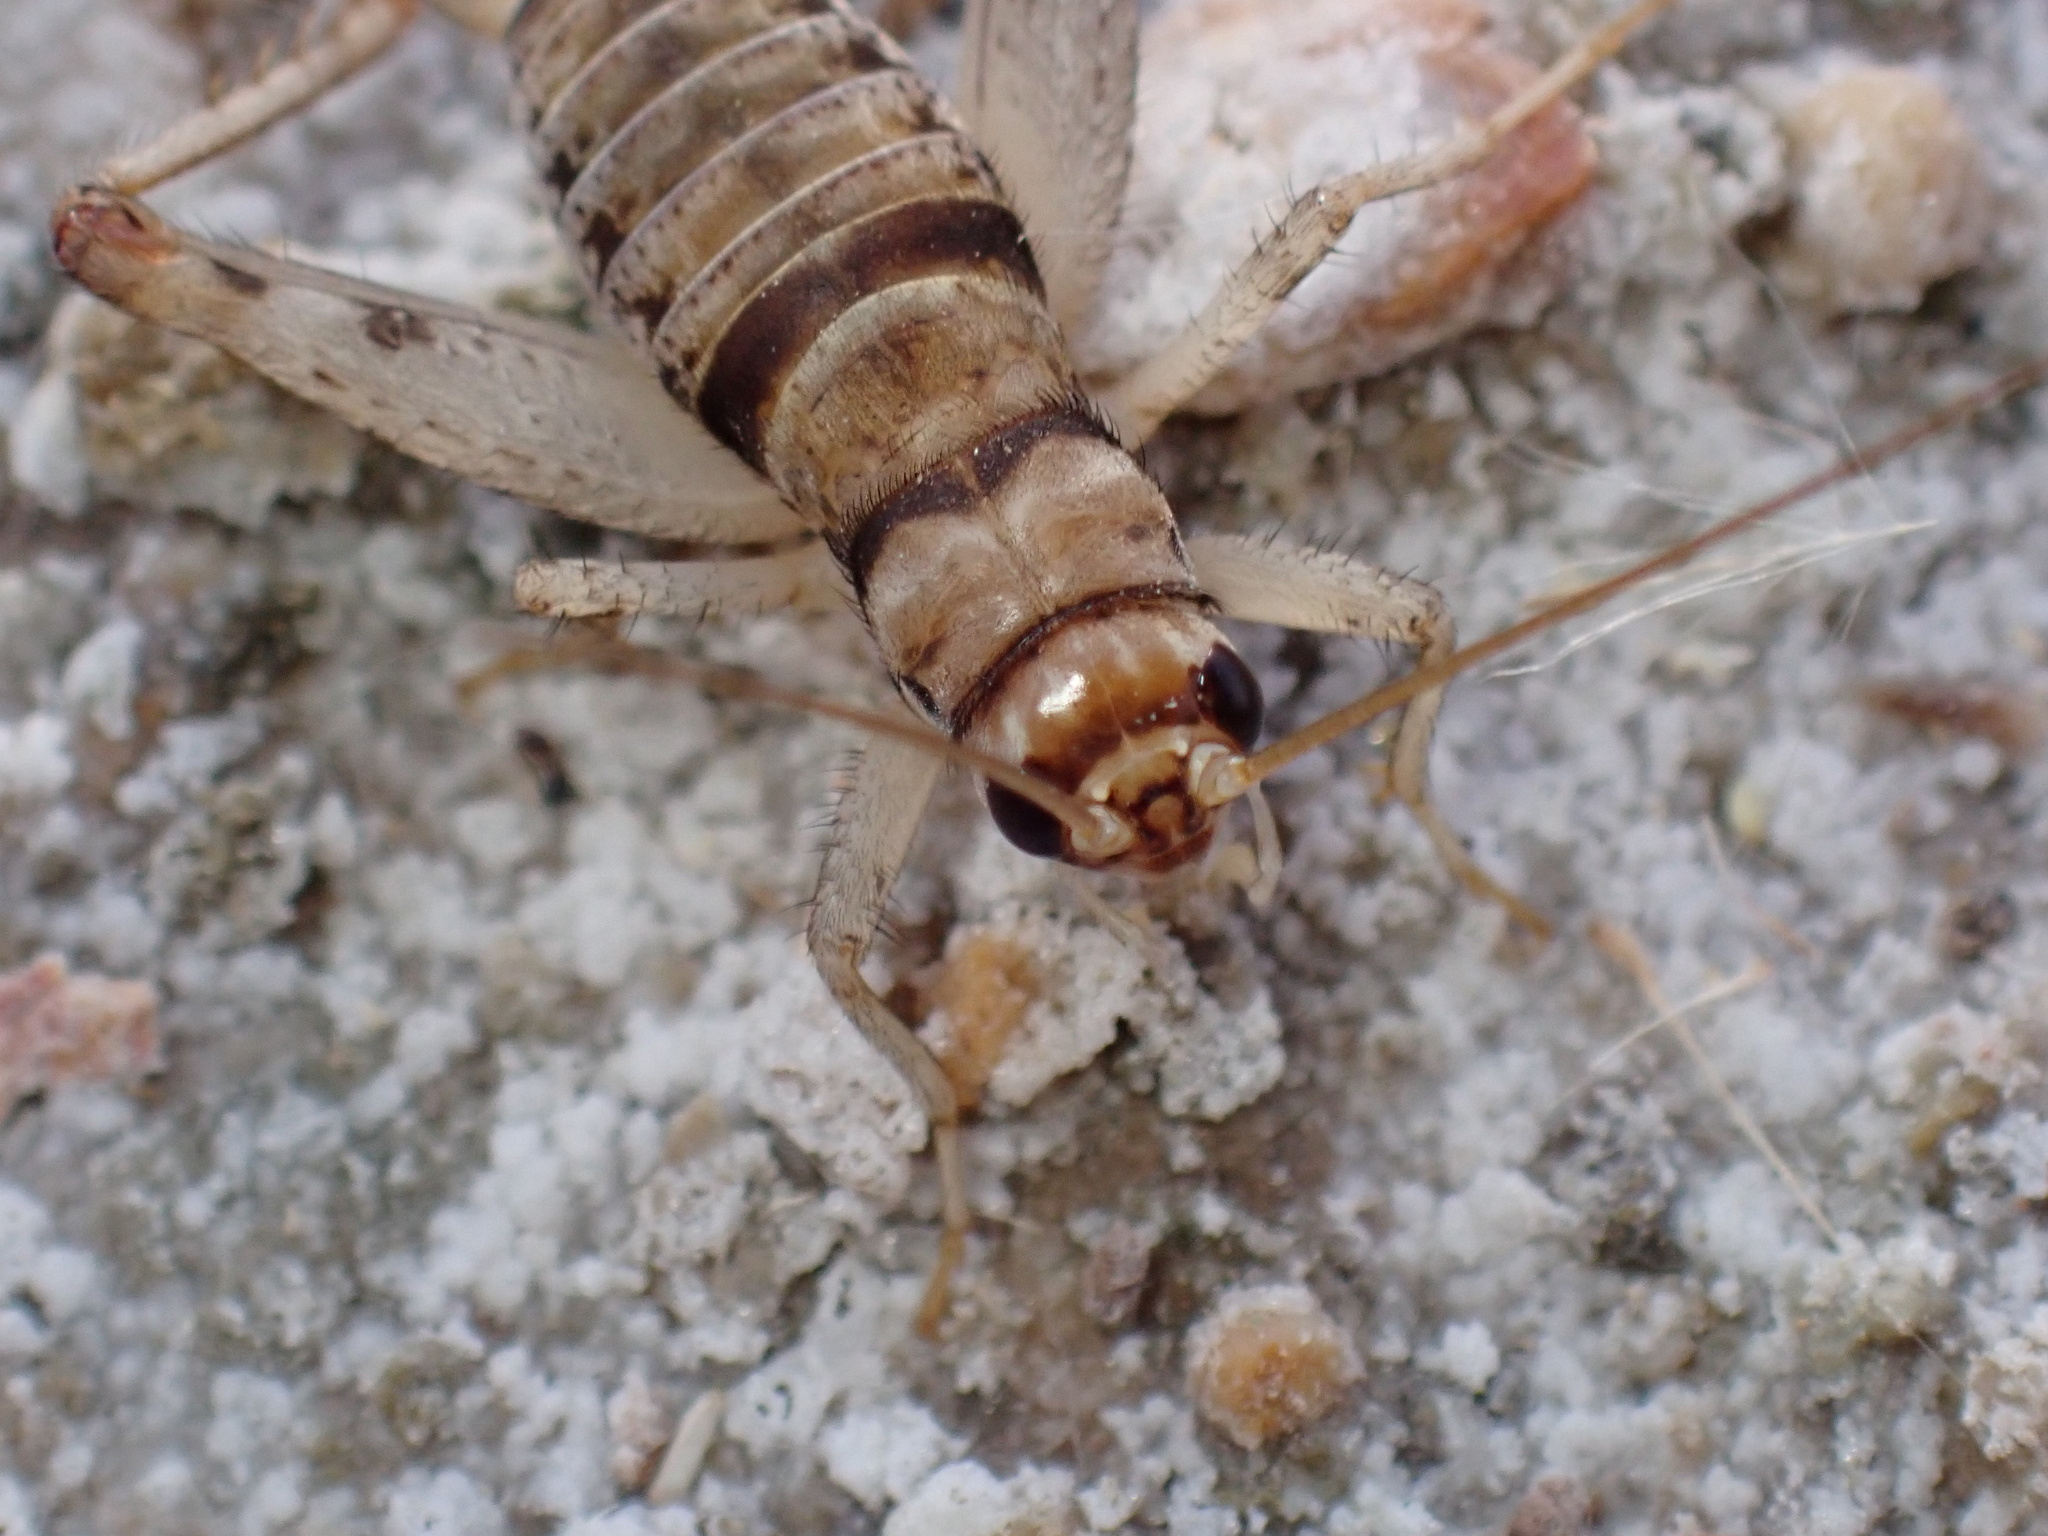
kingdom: Animalia
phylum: Arthropoda
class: Insecta
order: Orthoptera
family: Gryllidae
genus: Gryllodes
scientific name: Gryllodes sigillatus
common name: Tropical house cricket
